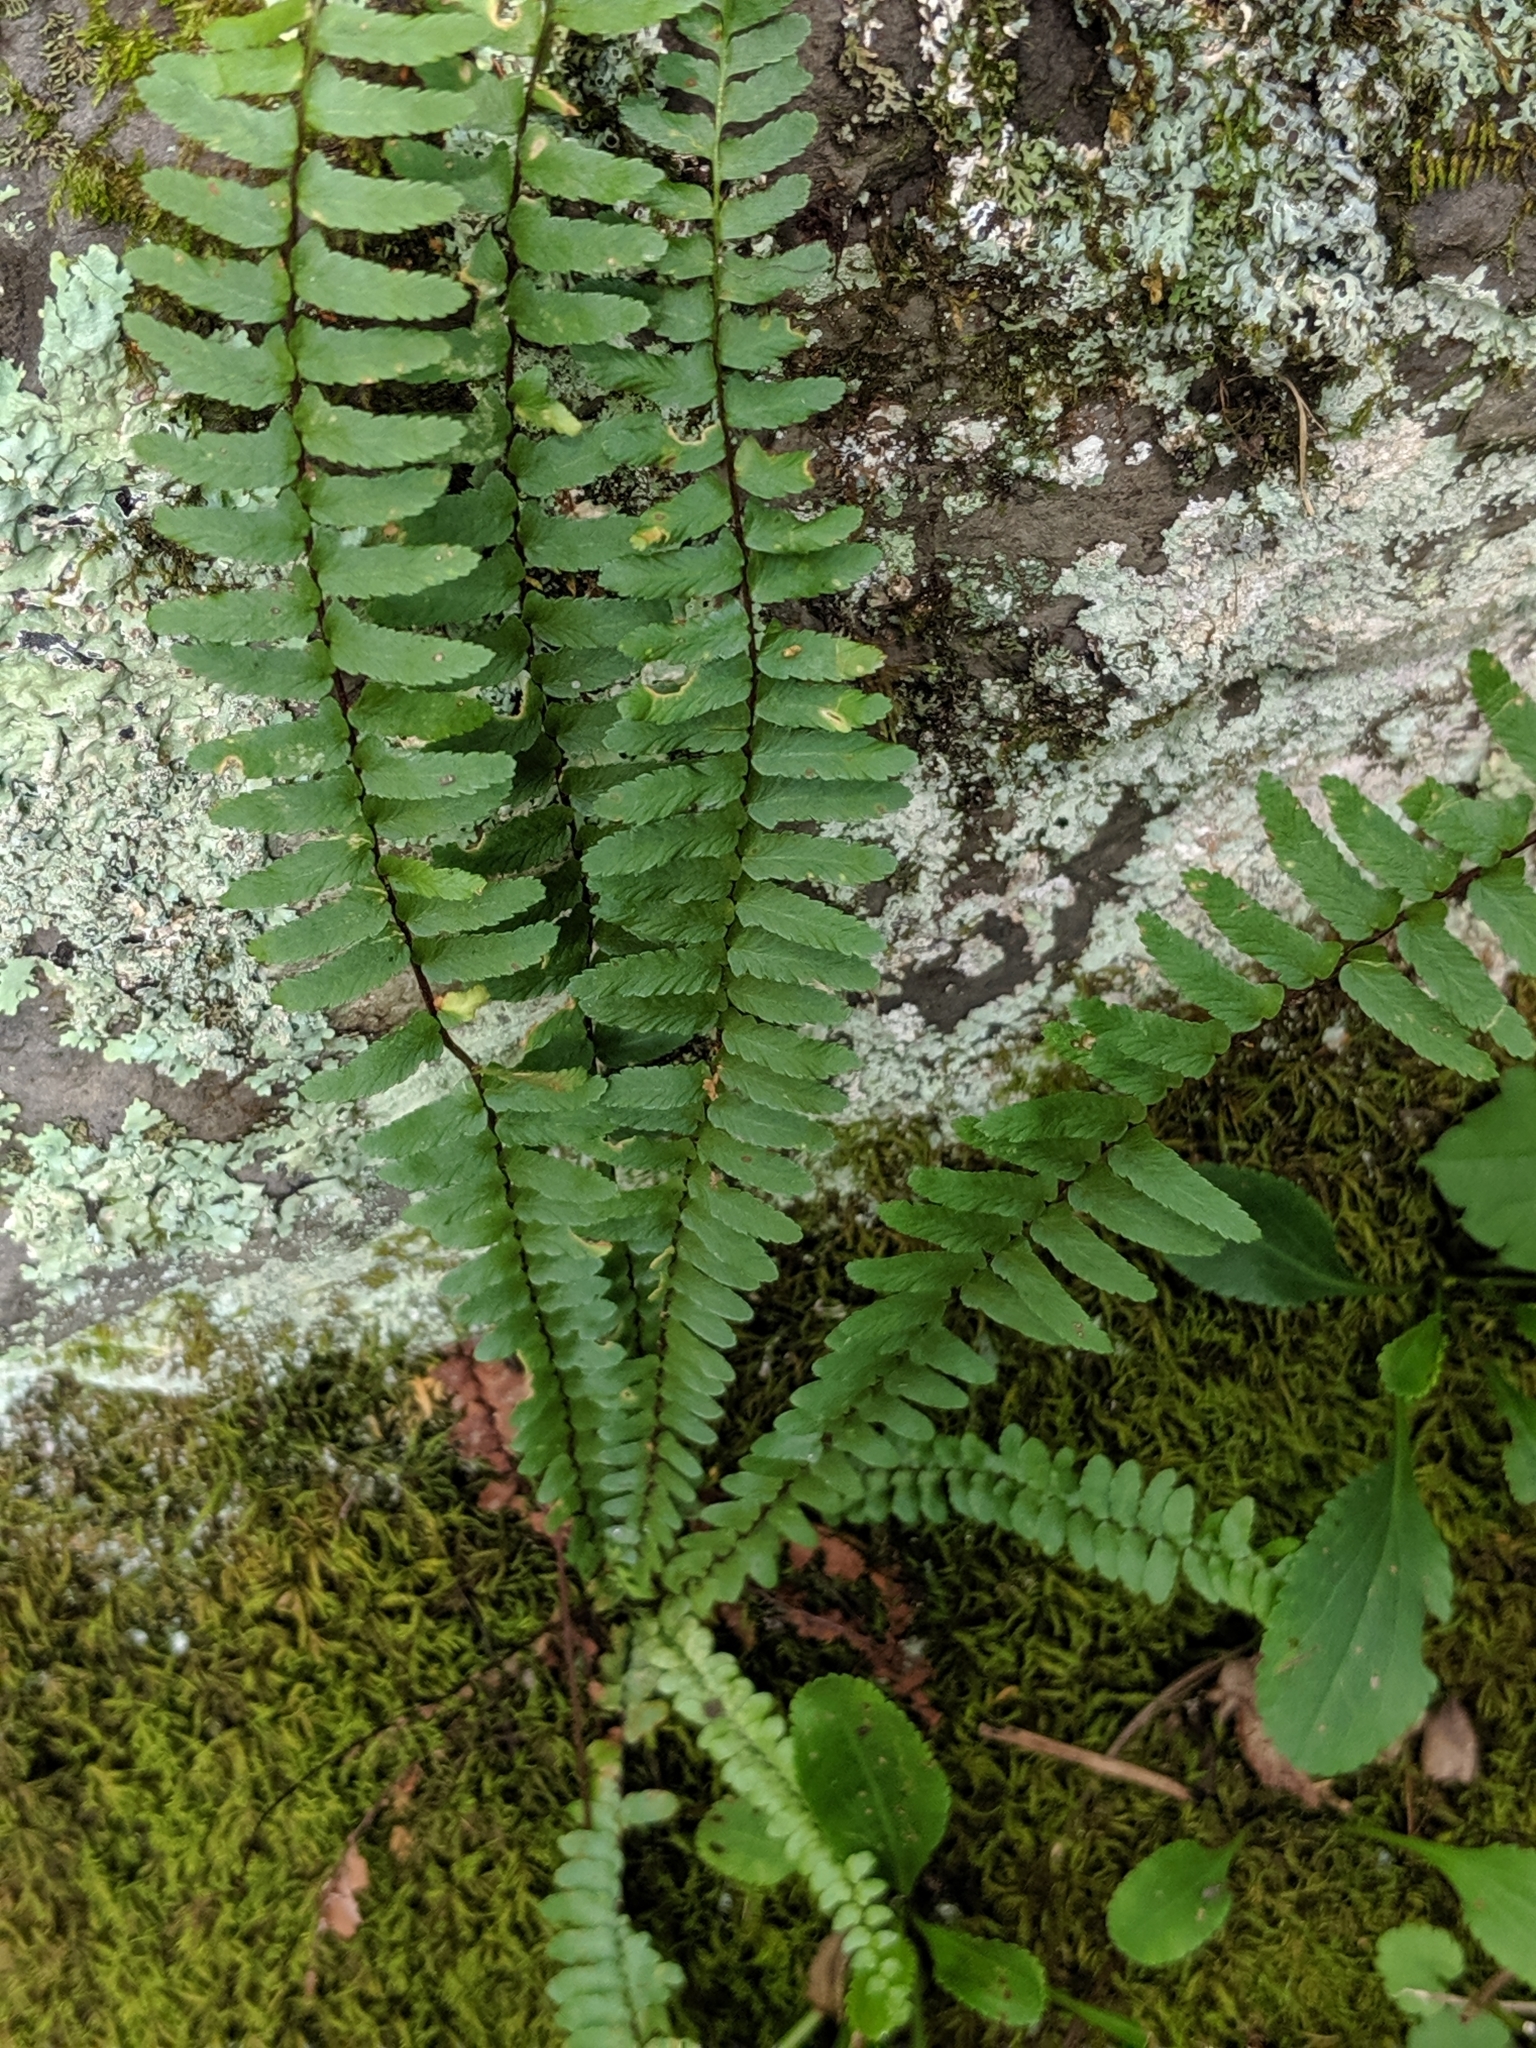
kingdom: Plantae
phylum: Tracheophyta
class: Polypodiopsida
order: Polypodiales
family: Aspleniaceae
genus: Asplenium
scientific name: Asplenium platyneuron
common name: Ebony spleenwort
